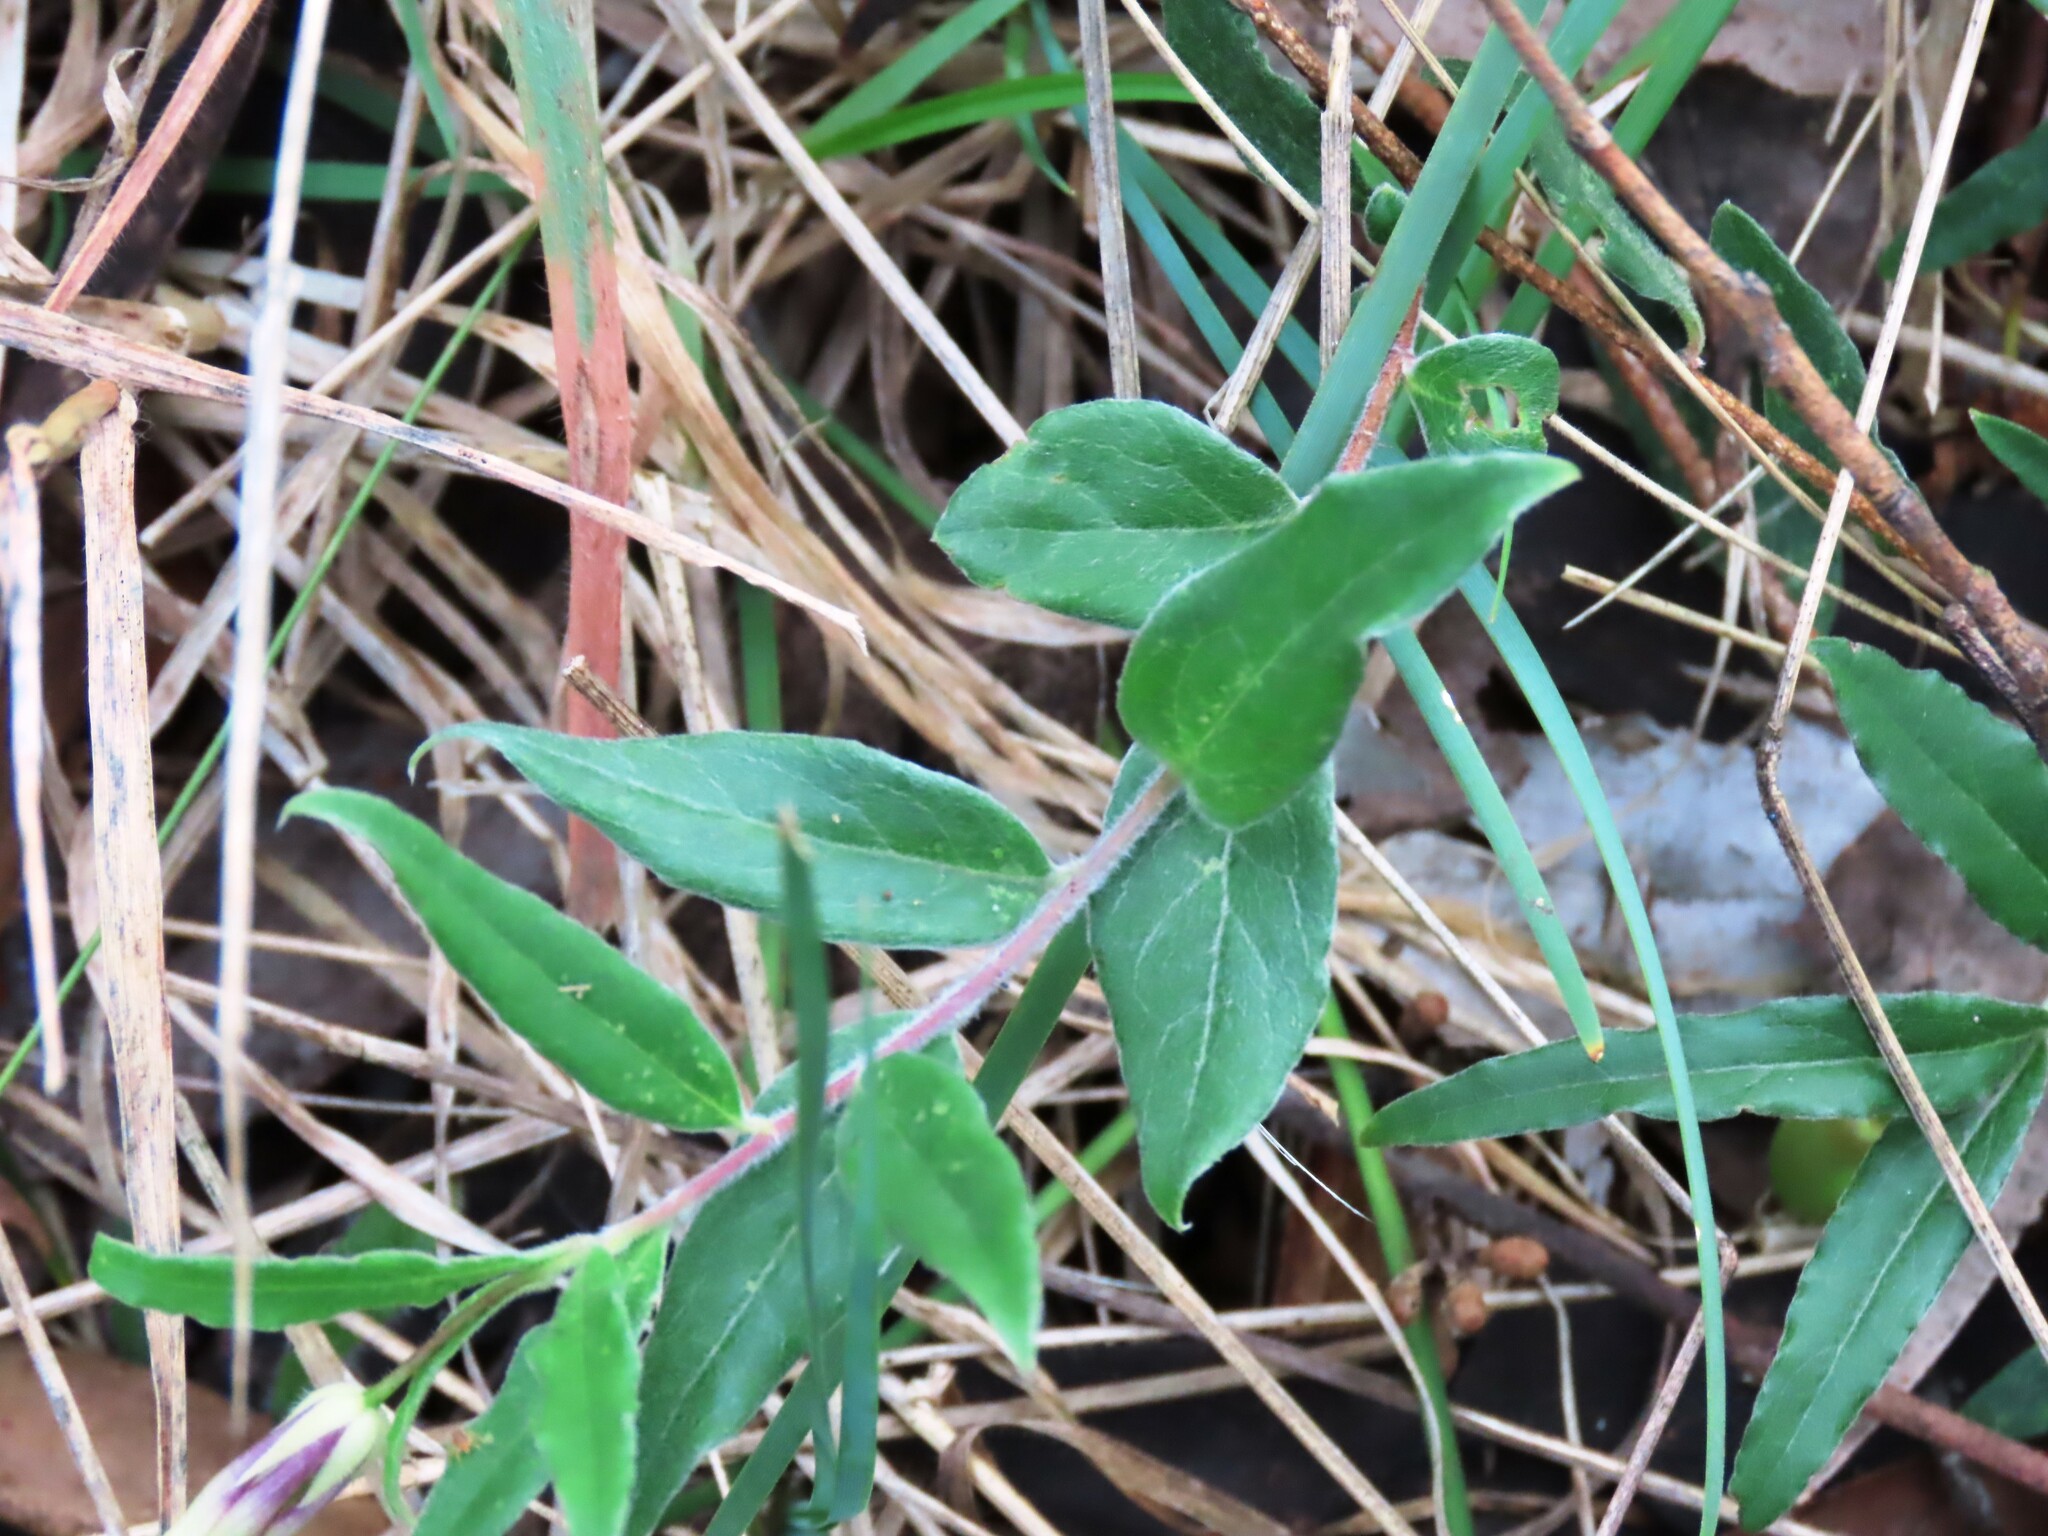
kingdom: Plantae
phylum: Tracheophyta
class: Magnoliopsida
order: Apiales
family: Pittosporaceae
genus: Billardiera
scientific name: Billardiera mutabilis
